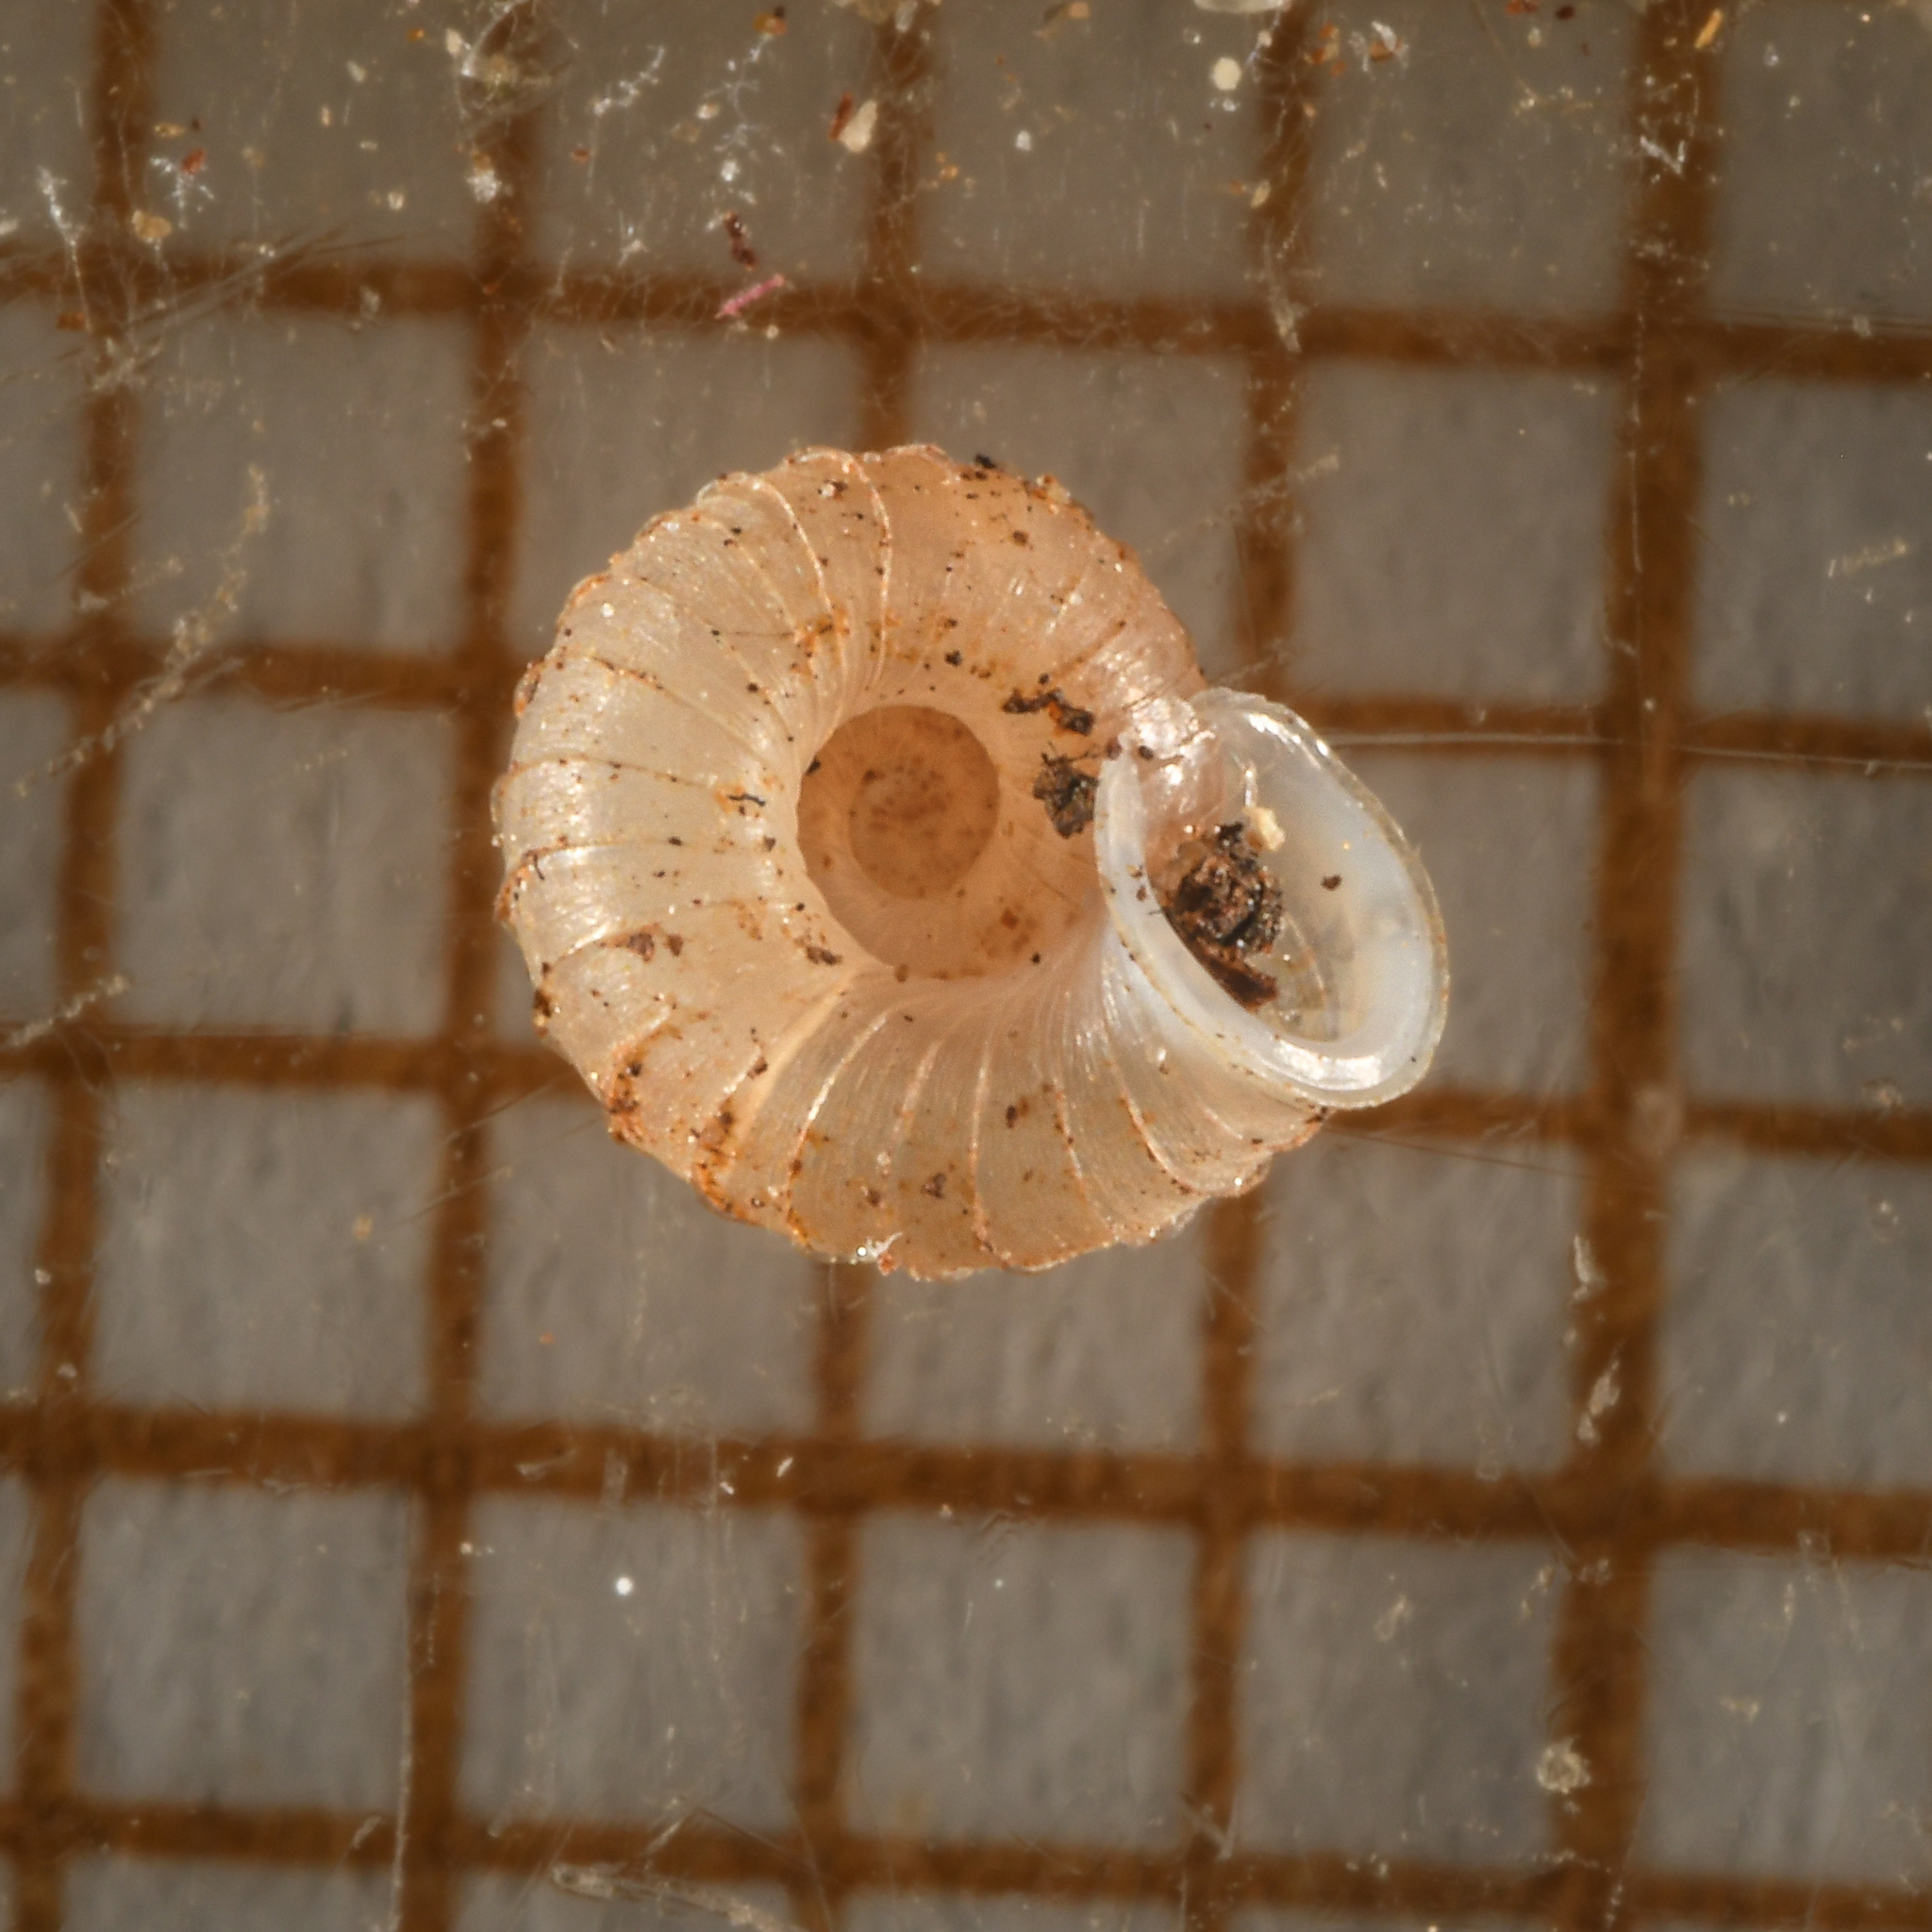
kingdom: Animalia
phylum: Mollusca
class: Gastropoda
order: Stylommatophora
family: Valloniidae
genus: Vallonia
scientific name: Vallonia costata
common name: Ribbed grass snail
